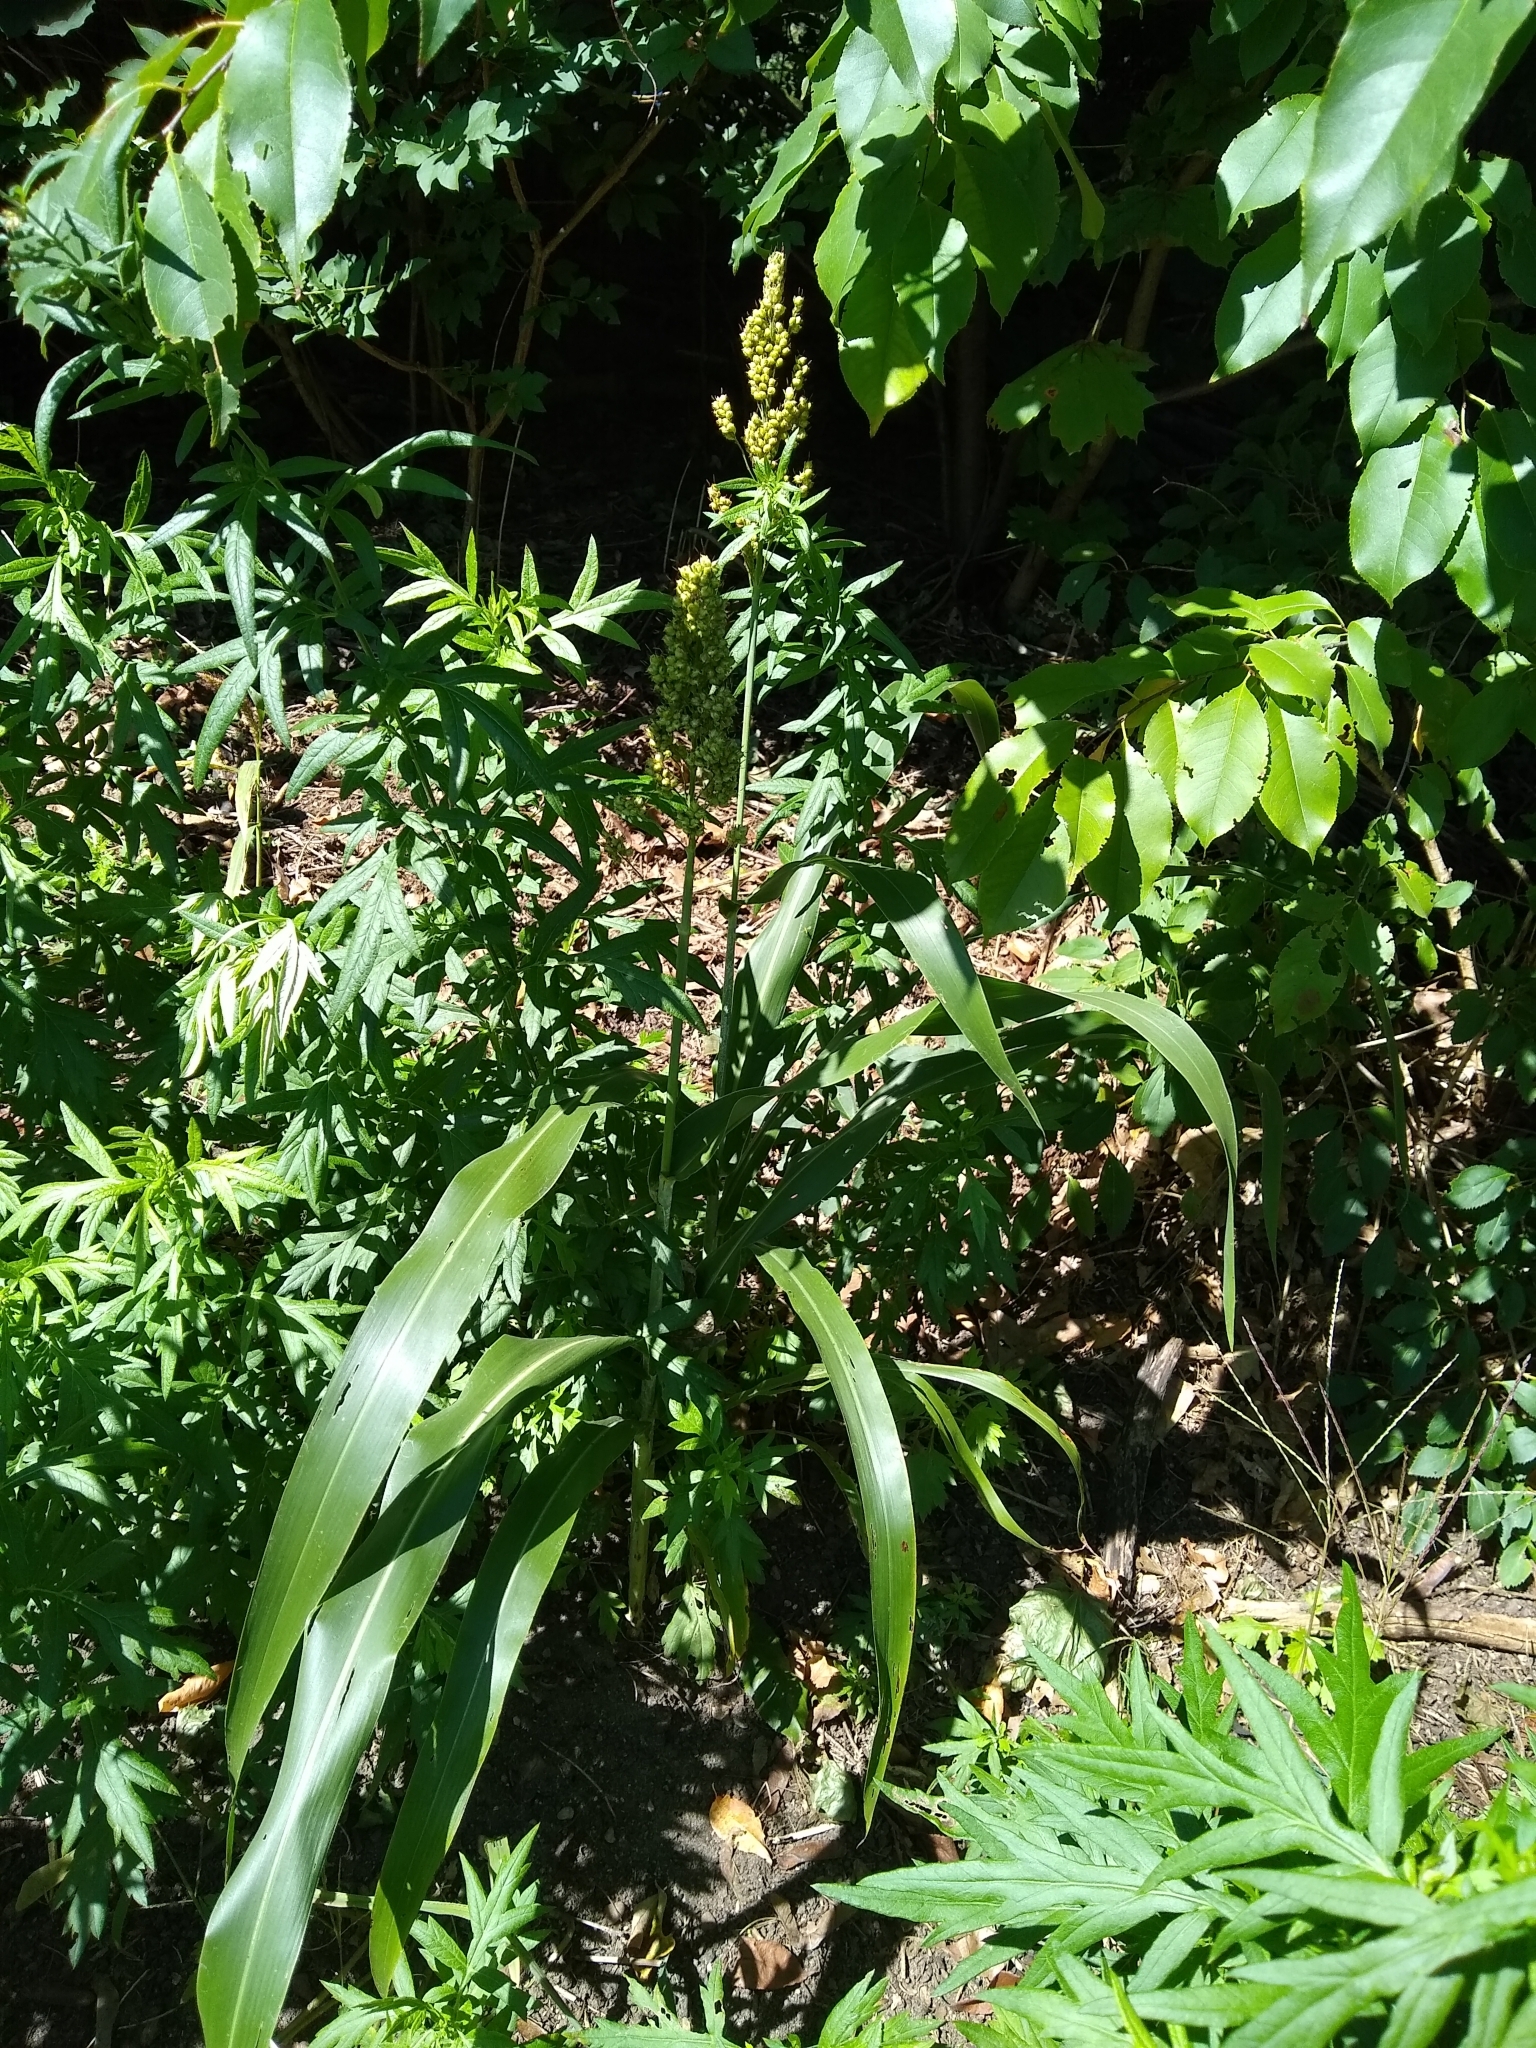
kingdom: Plantae
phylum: Tracheophyta
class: Liliopsida
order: Poales
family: Poaceae
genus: Sorghum
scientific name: Sorghum bicolor
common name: Sorghum
